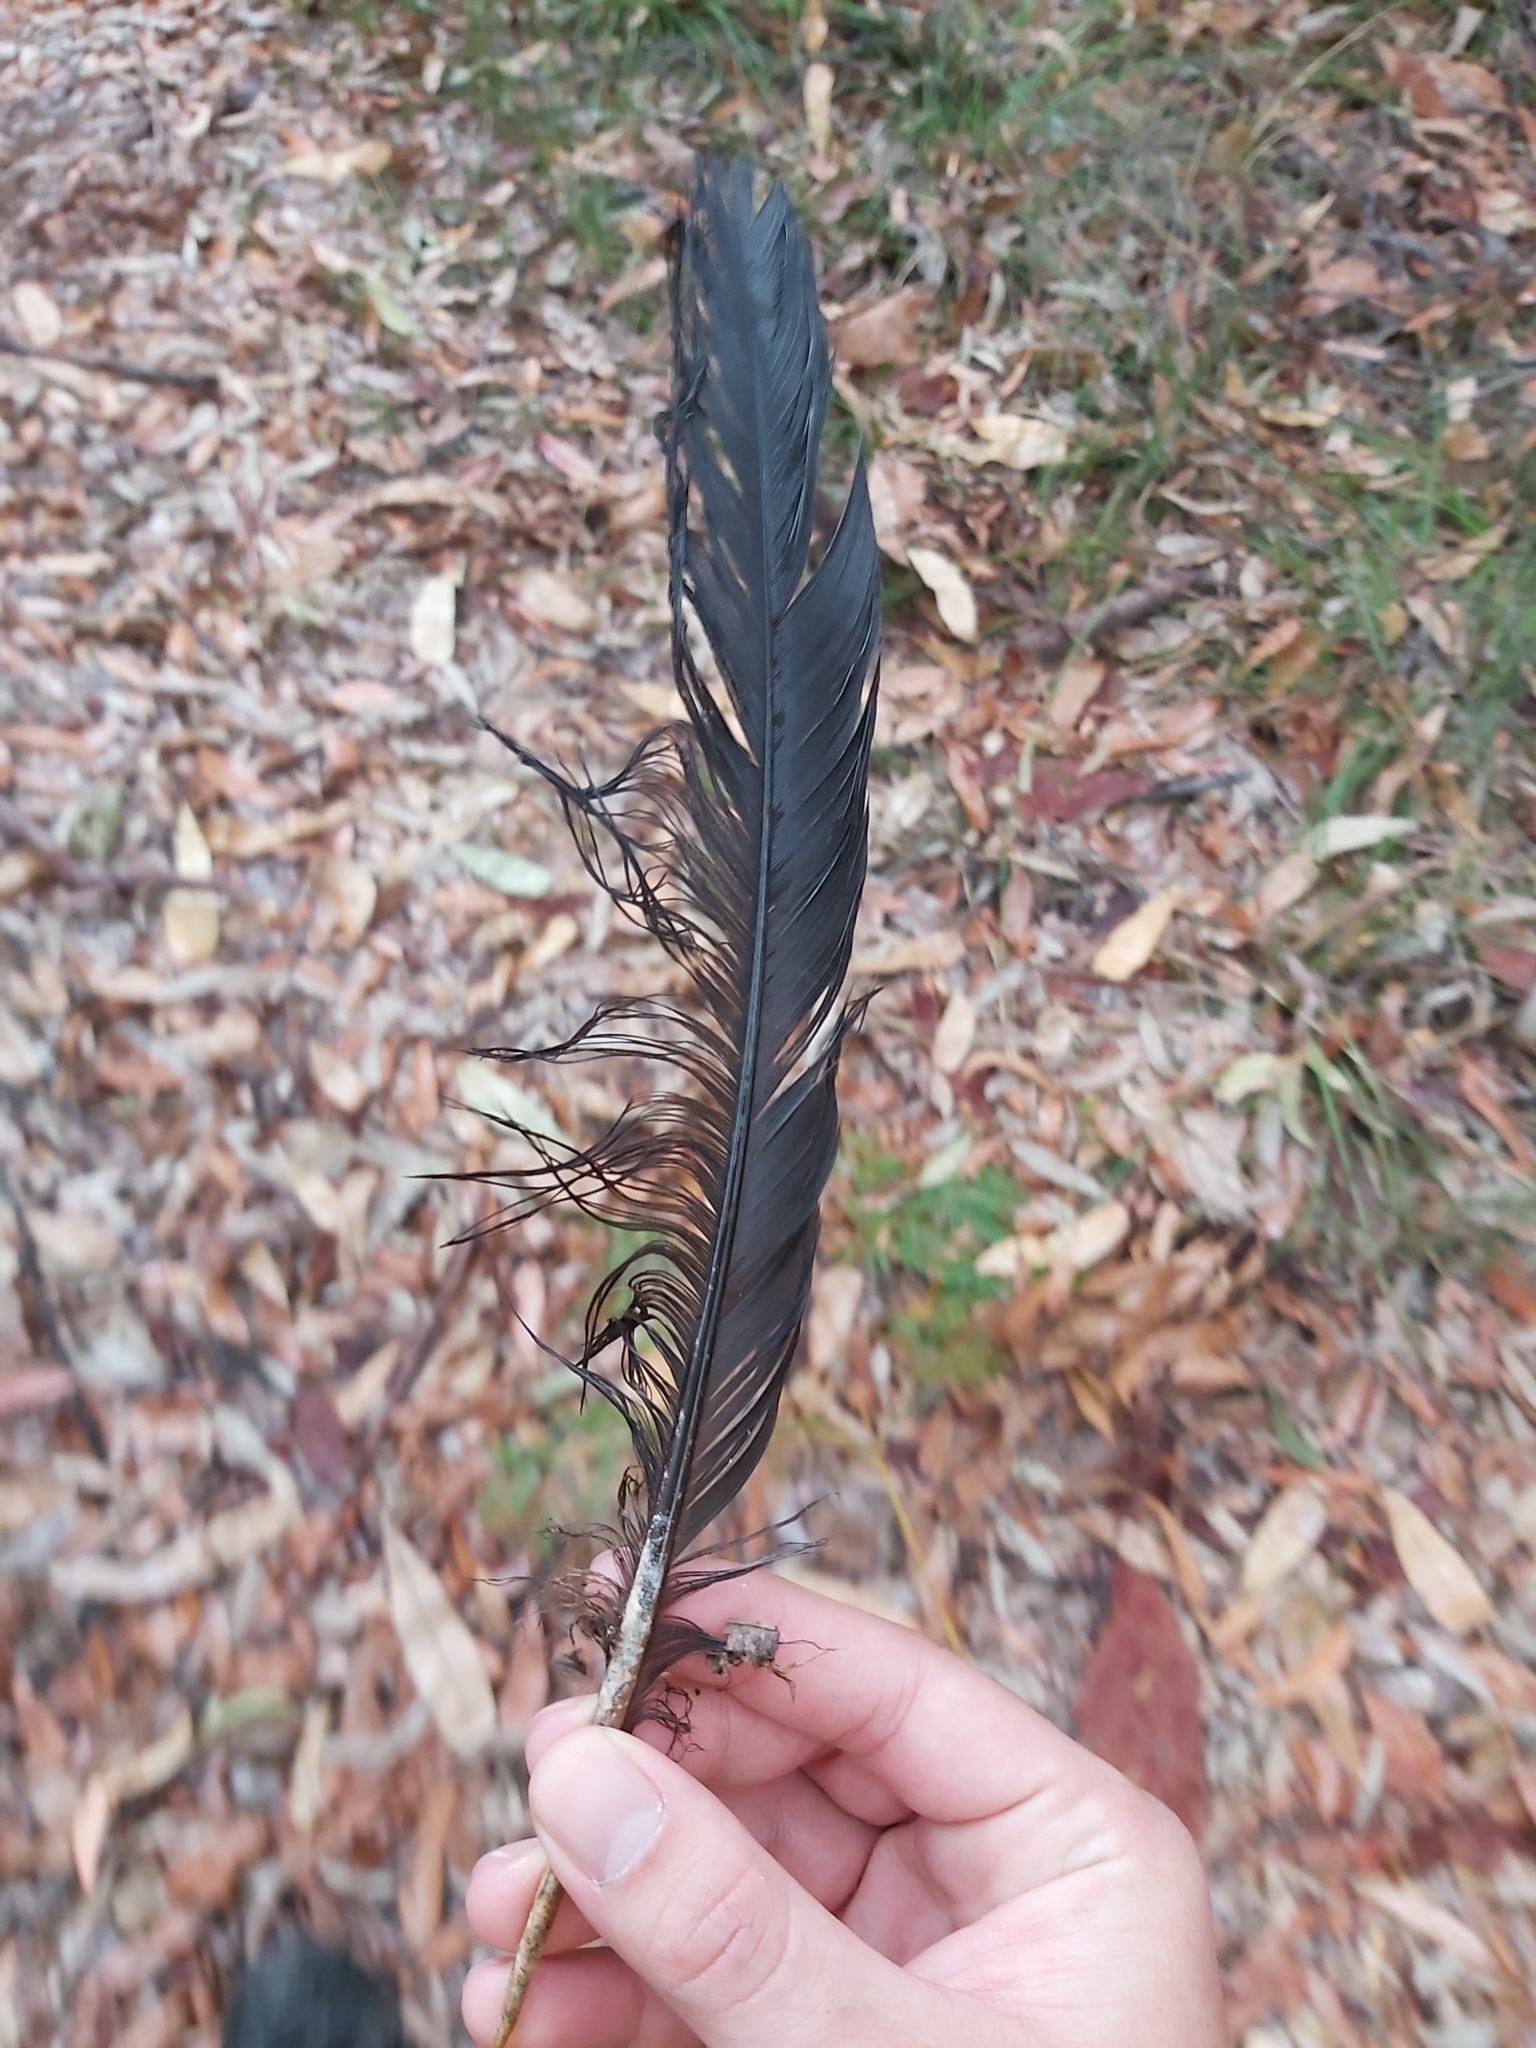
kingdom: Animalia
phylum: Chordata
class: Aves
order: Galliformes
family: Megapodiidae
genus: Alectura
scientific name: Alectura lathami
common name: Australian brushturkey
